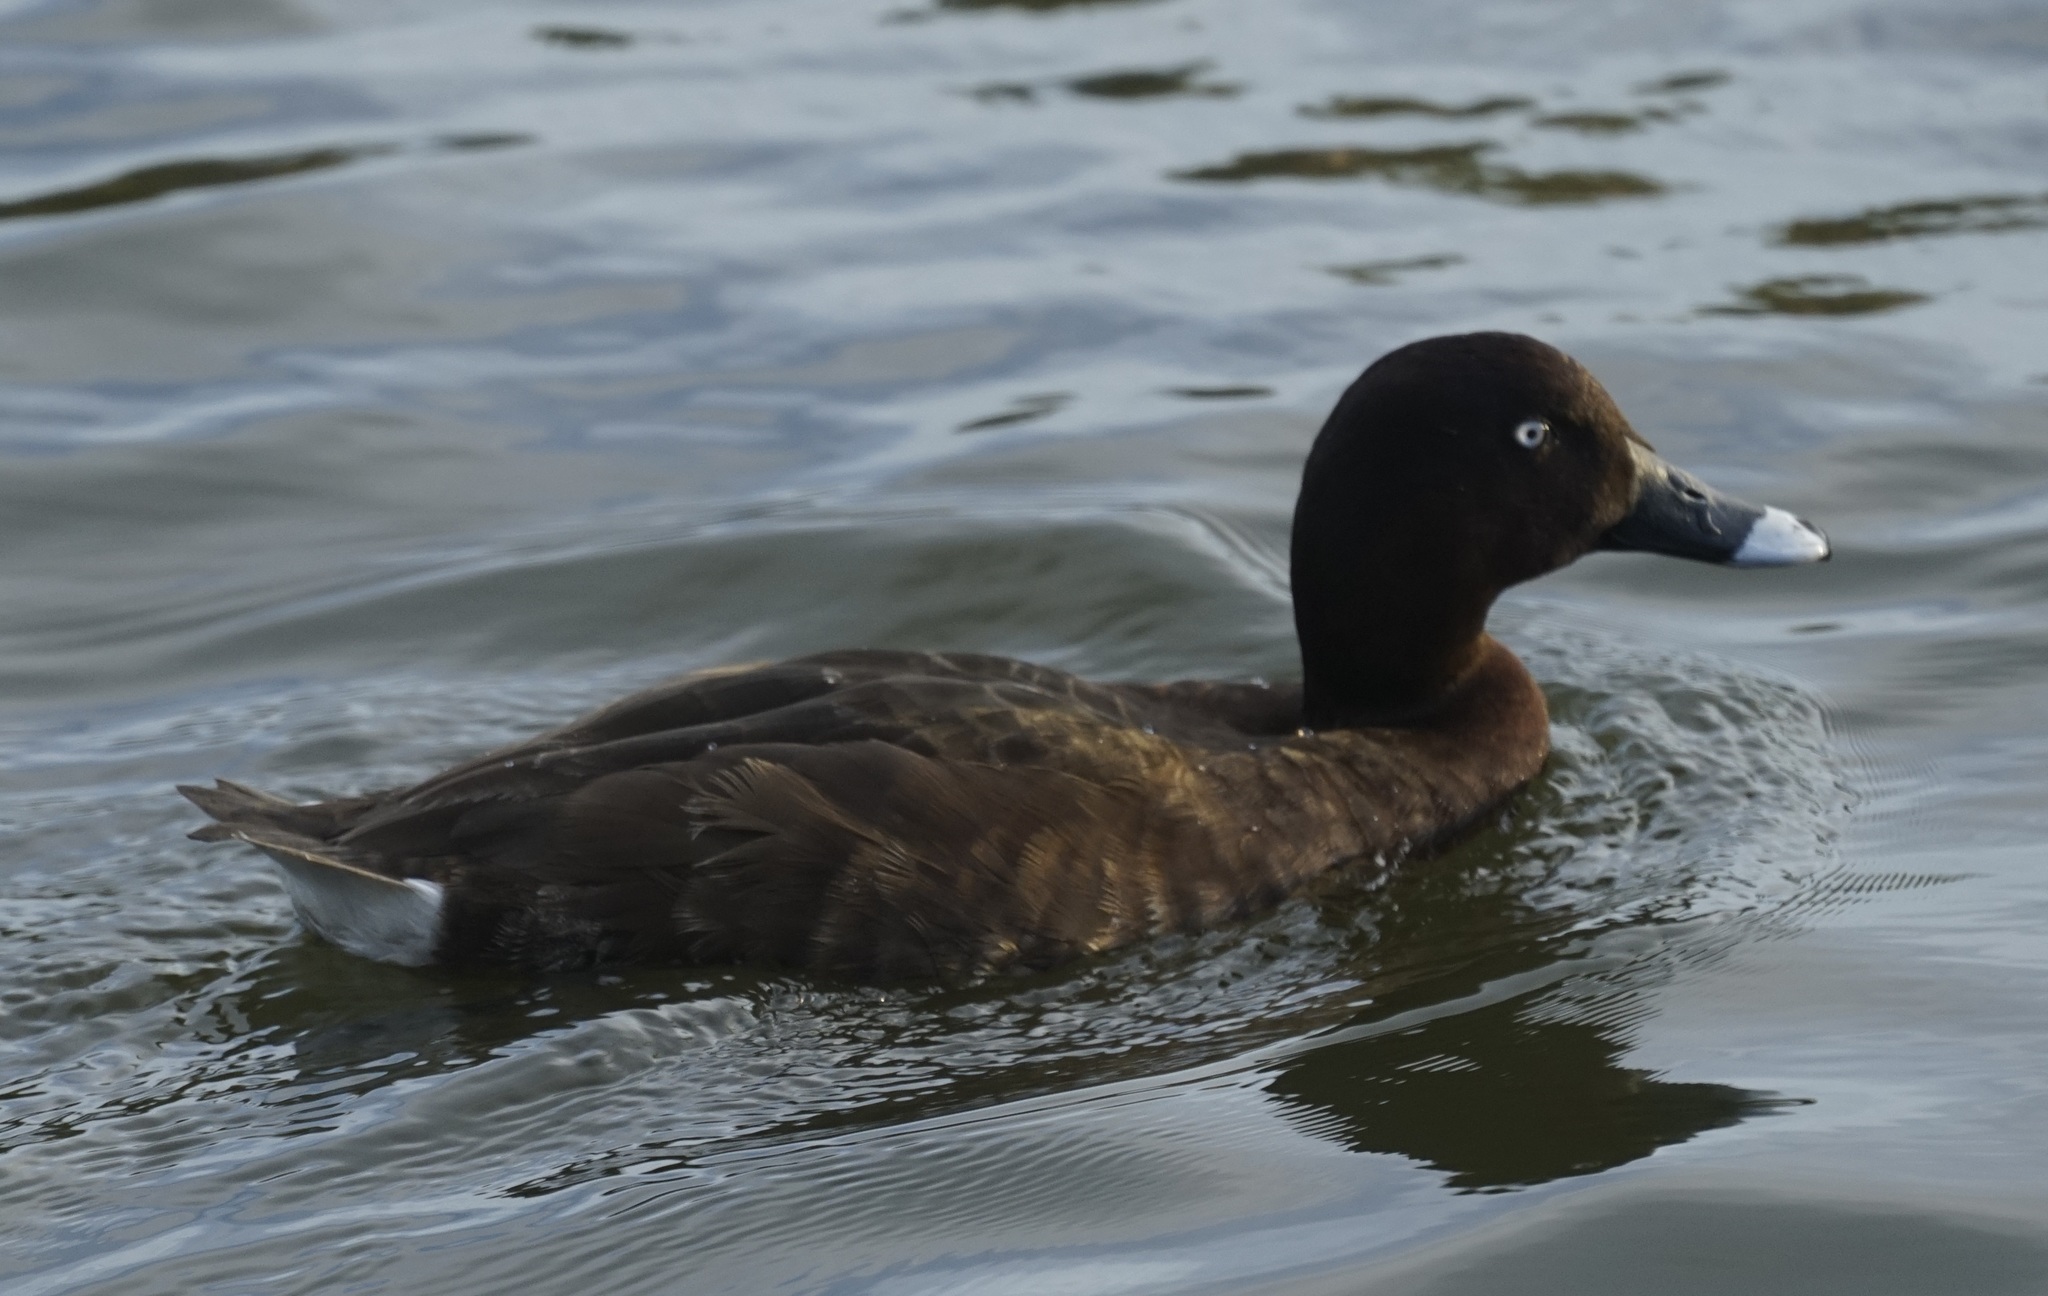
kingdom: Animalia
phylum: Chordata
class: Aves
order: Anseriformes
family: Anatidae
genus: Aythya
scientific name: Aythya australis
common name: Hardhead
